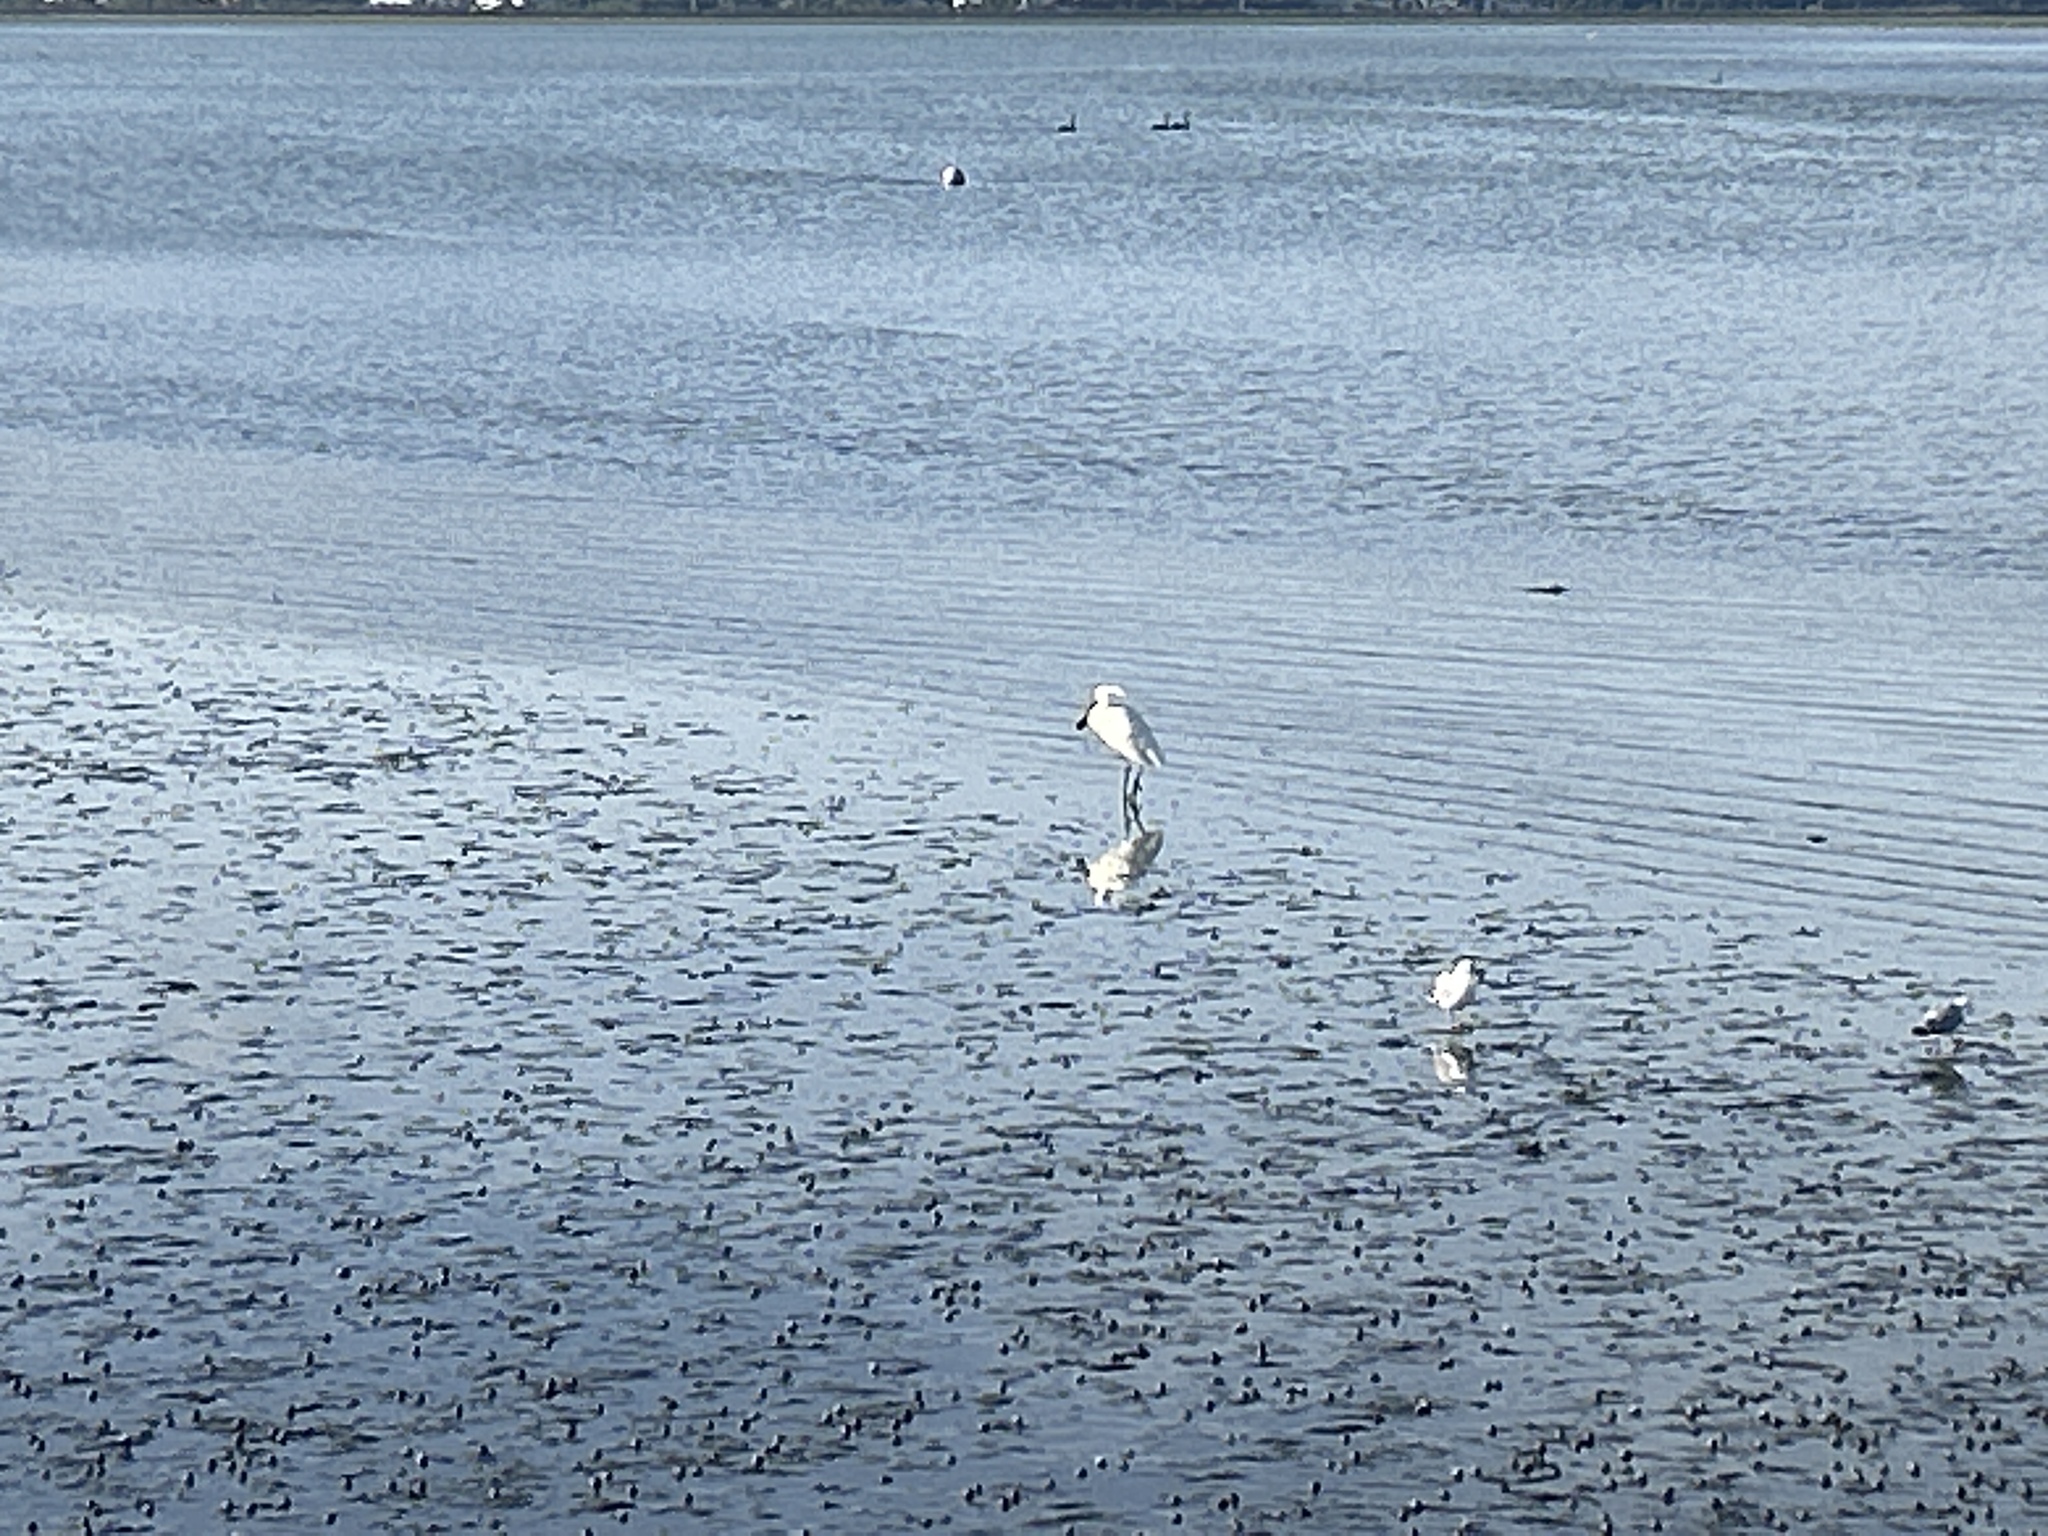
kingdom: Animalia
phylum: Chordata
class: Aves
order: Pelecaniformes
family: Threskiornithidae
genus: Platalea
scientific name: Platalea regia
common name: Royal spoonbill
